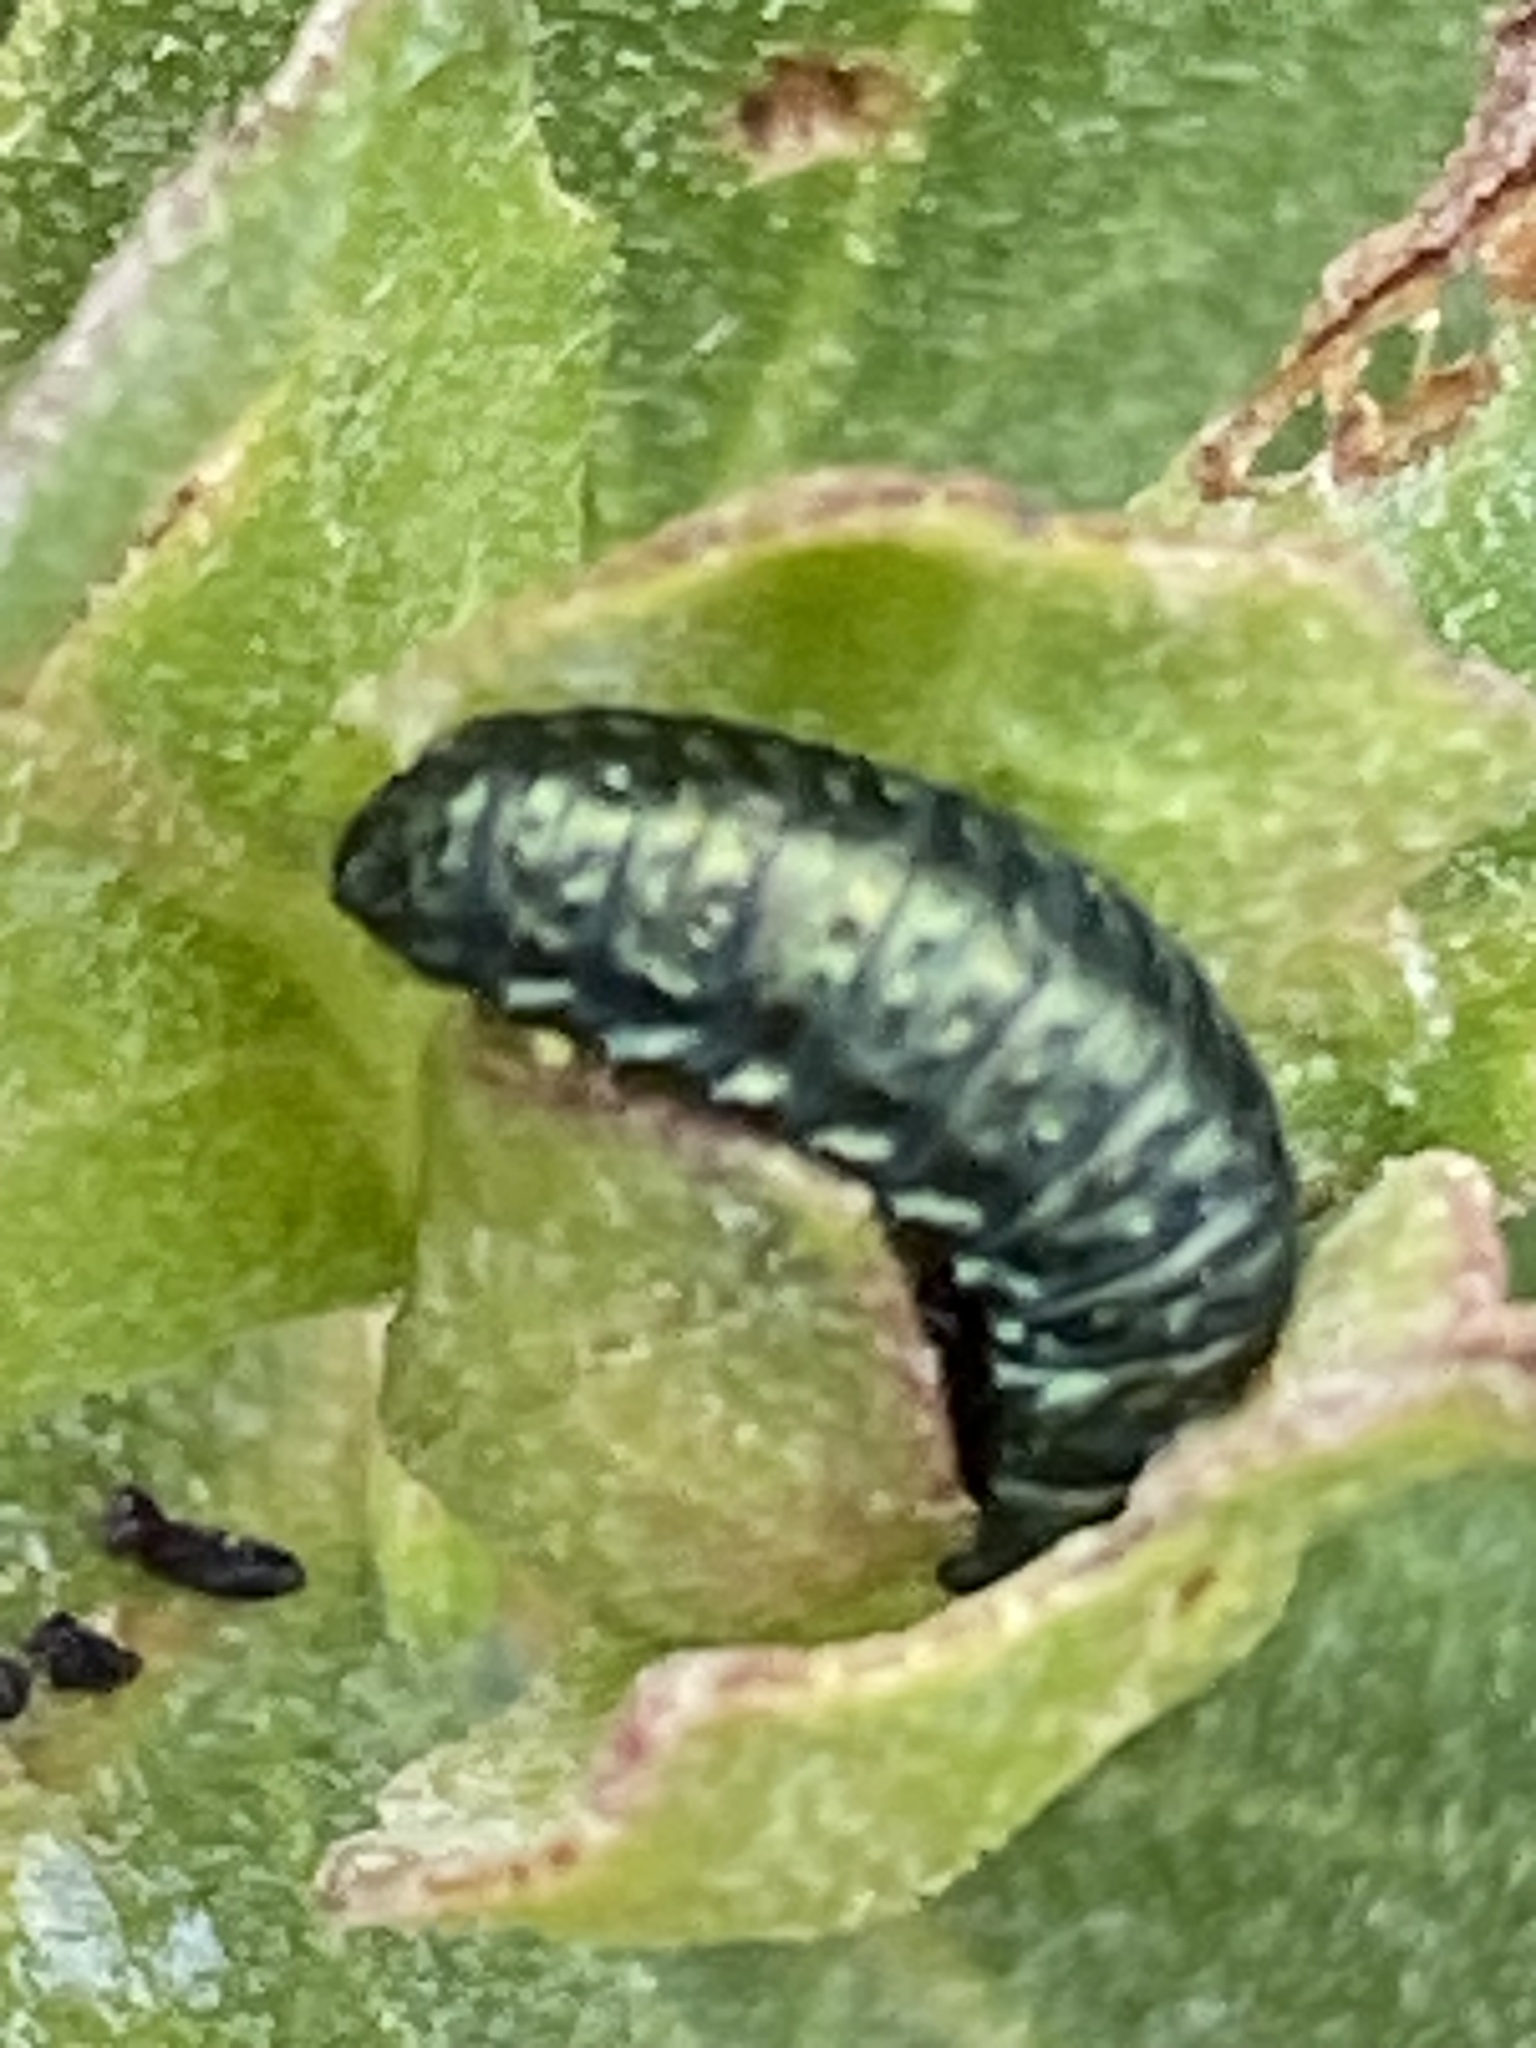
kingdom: Animalia
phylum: Arthropoda
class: Insecta
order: Coleoptera
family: Chrysomelidae
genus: Trirhabda
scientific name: Trirhabda flavolimbata
